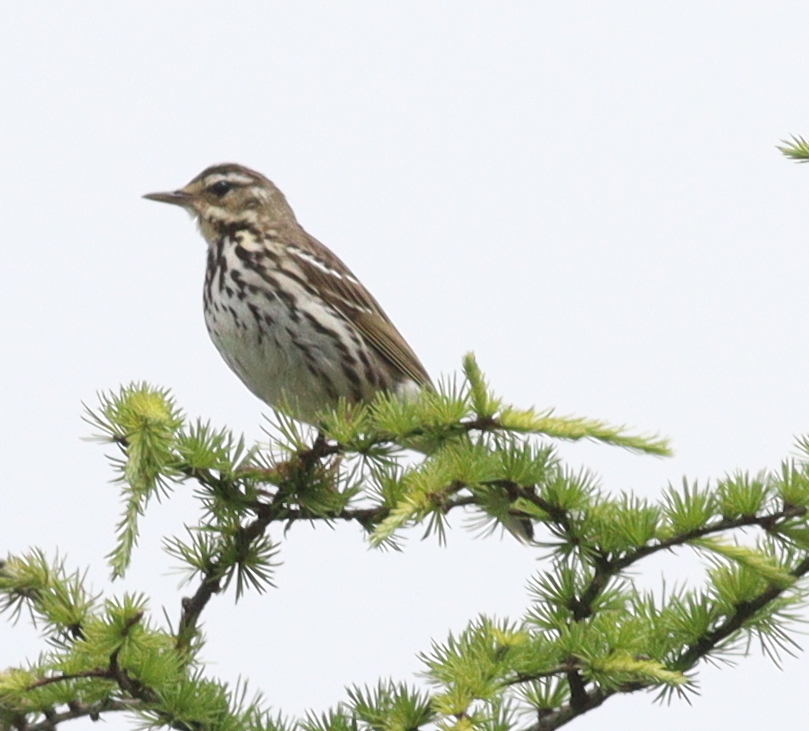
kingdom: Animalia
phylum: Chordata
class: Aves
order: Passeriformes
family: Motacillidae
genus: Anthus
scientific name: Anthus hodgsoni
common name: Olive-backed pipit
